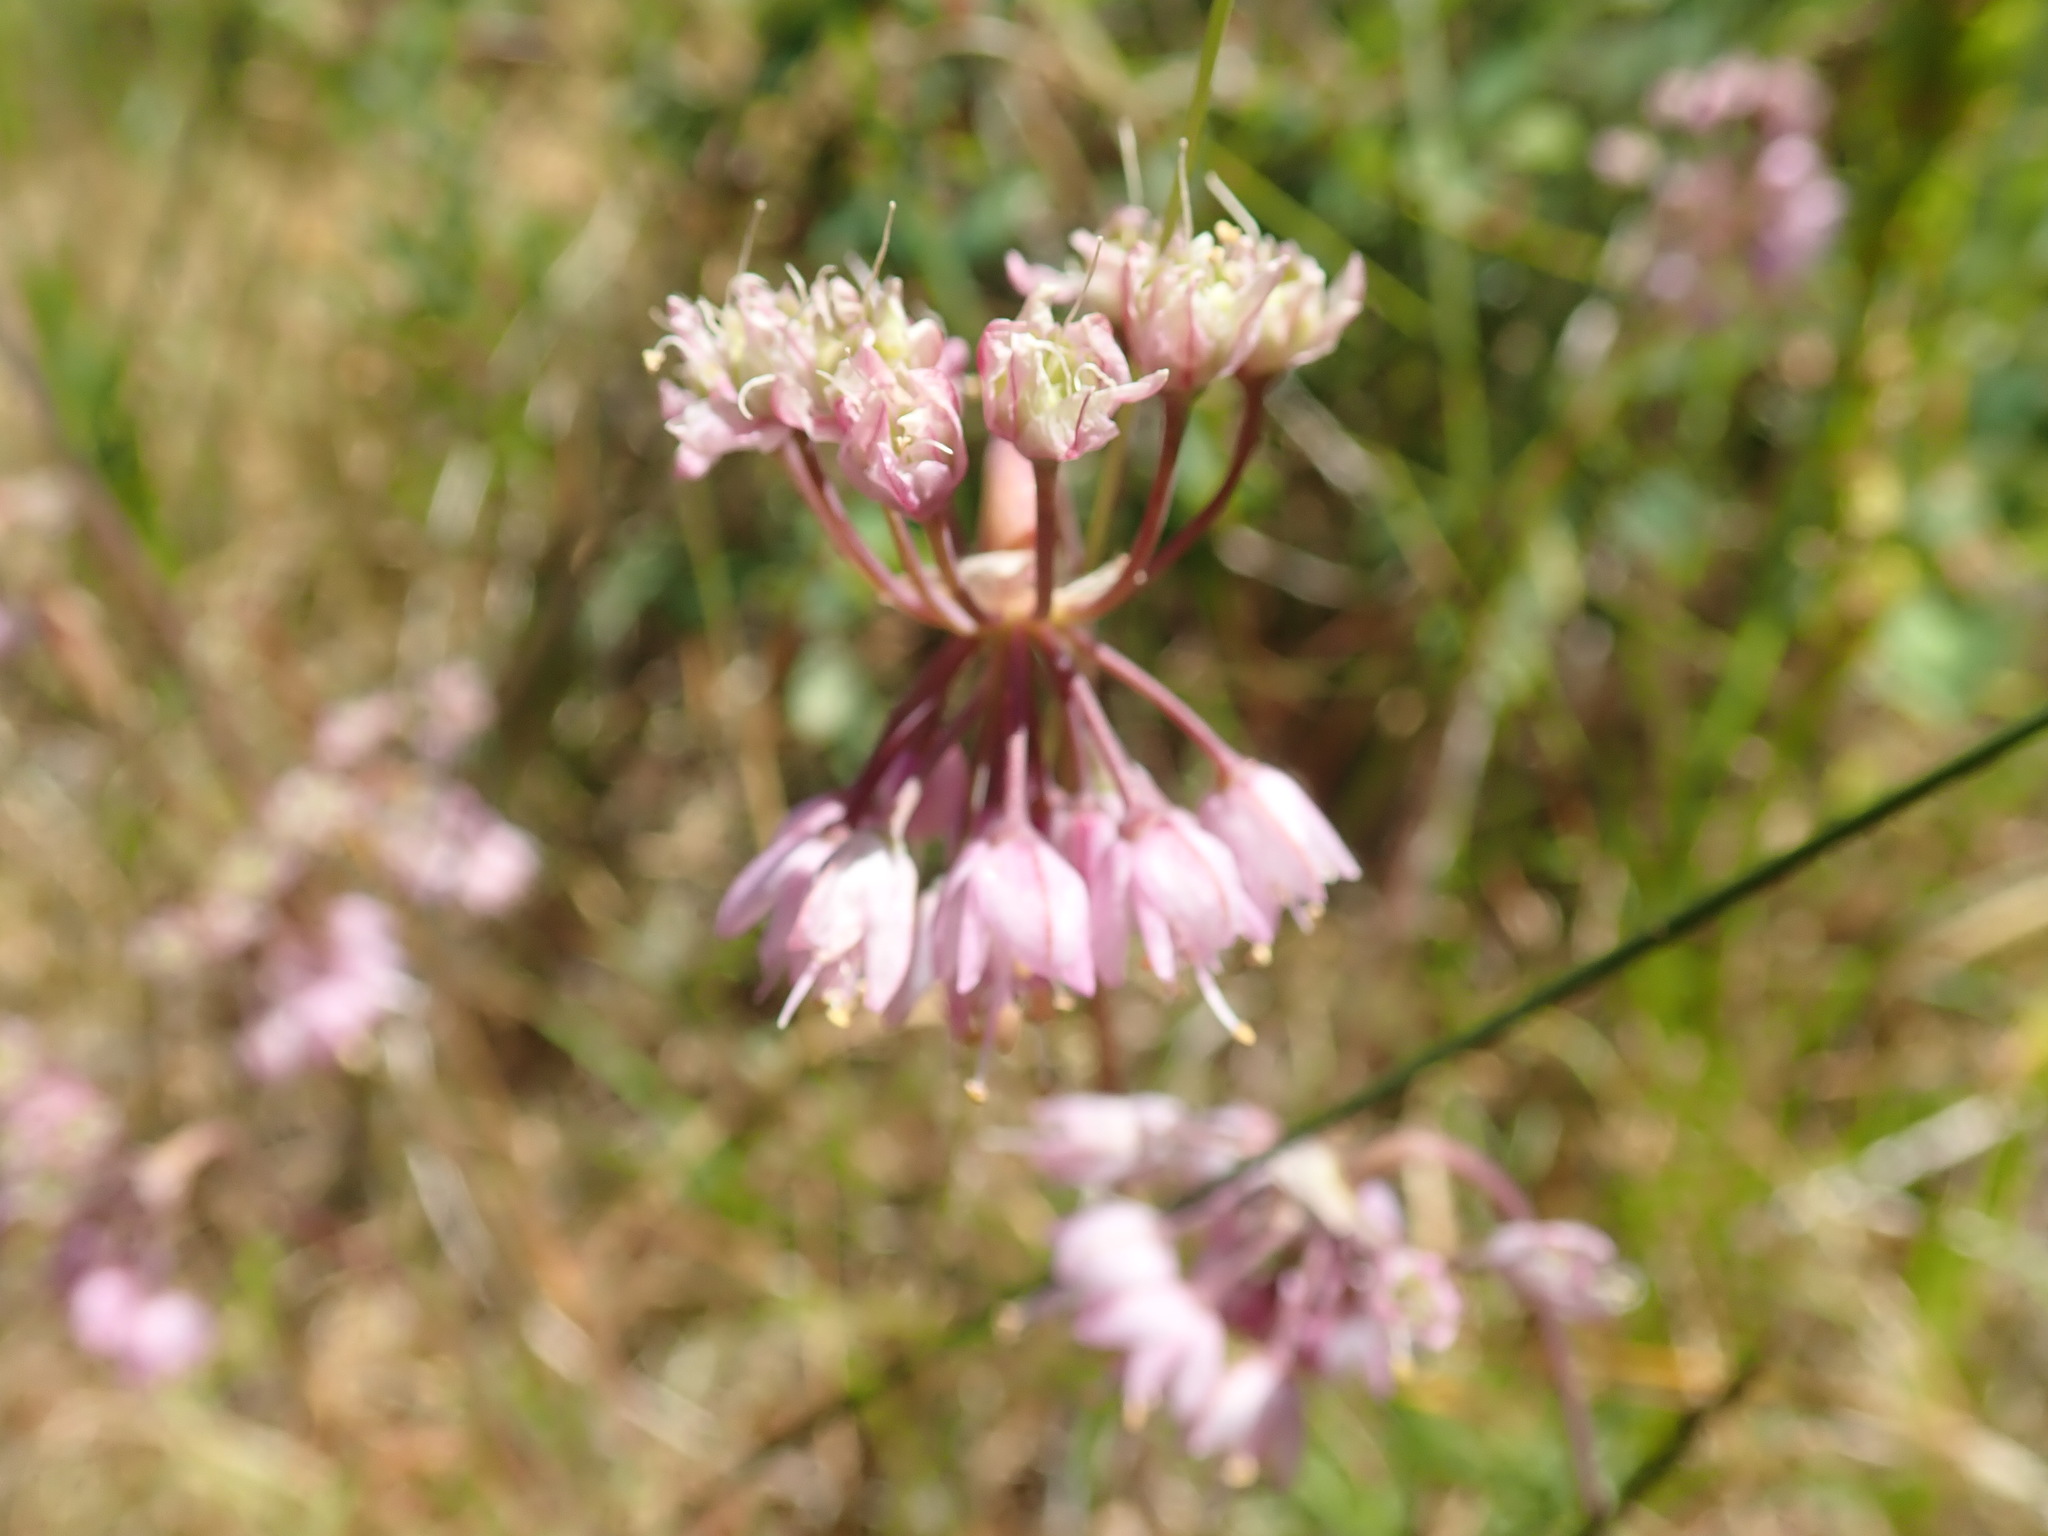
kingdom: Plantae
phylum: Tracheophyta
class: Liliopsida
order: Asparagales
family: Amaryllidaceae
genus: Allium
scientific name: Allium cernuum
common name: Nodding onion
